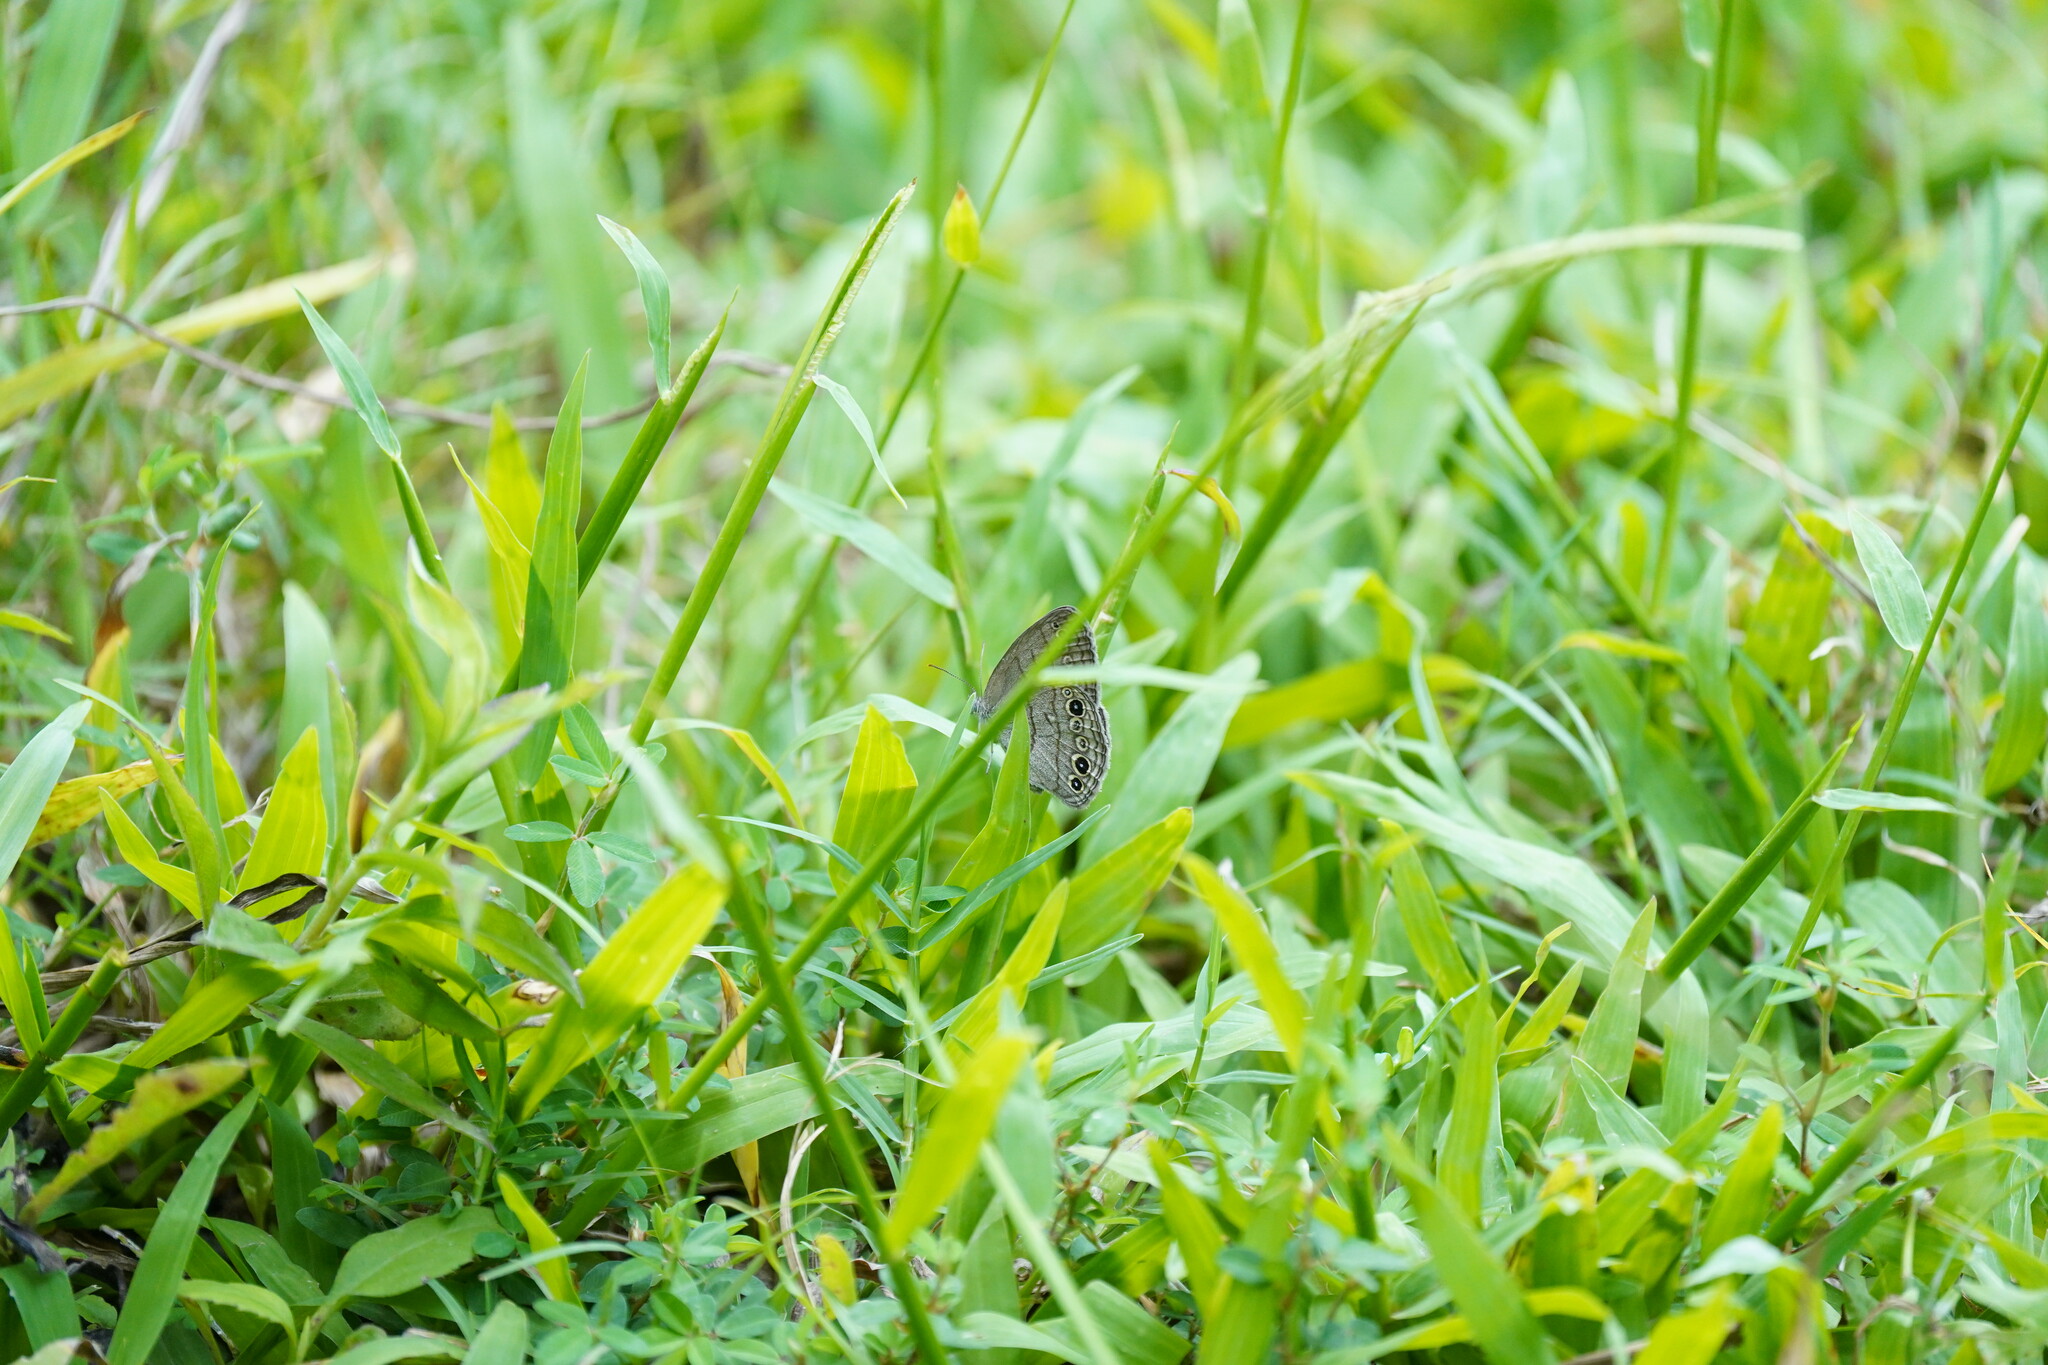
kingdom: Animalia
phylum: Arthropoda
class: Insecta
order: Lepidoptera
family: Nymphalidae
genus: Hermeuptychia
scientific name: Hermeuptychia hermes
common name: Hermes satyr
